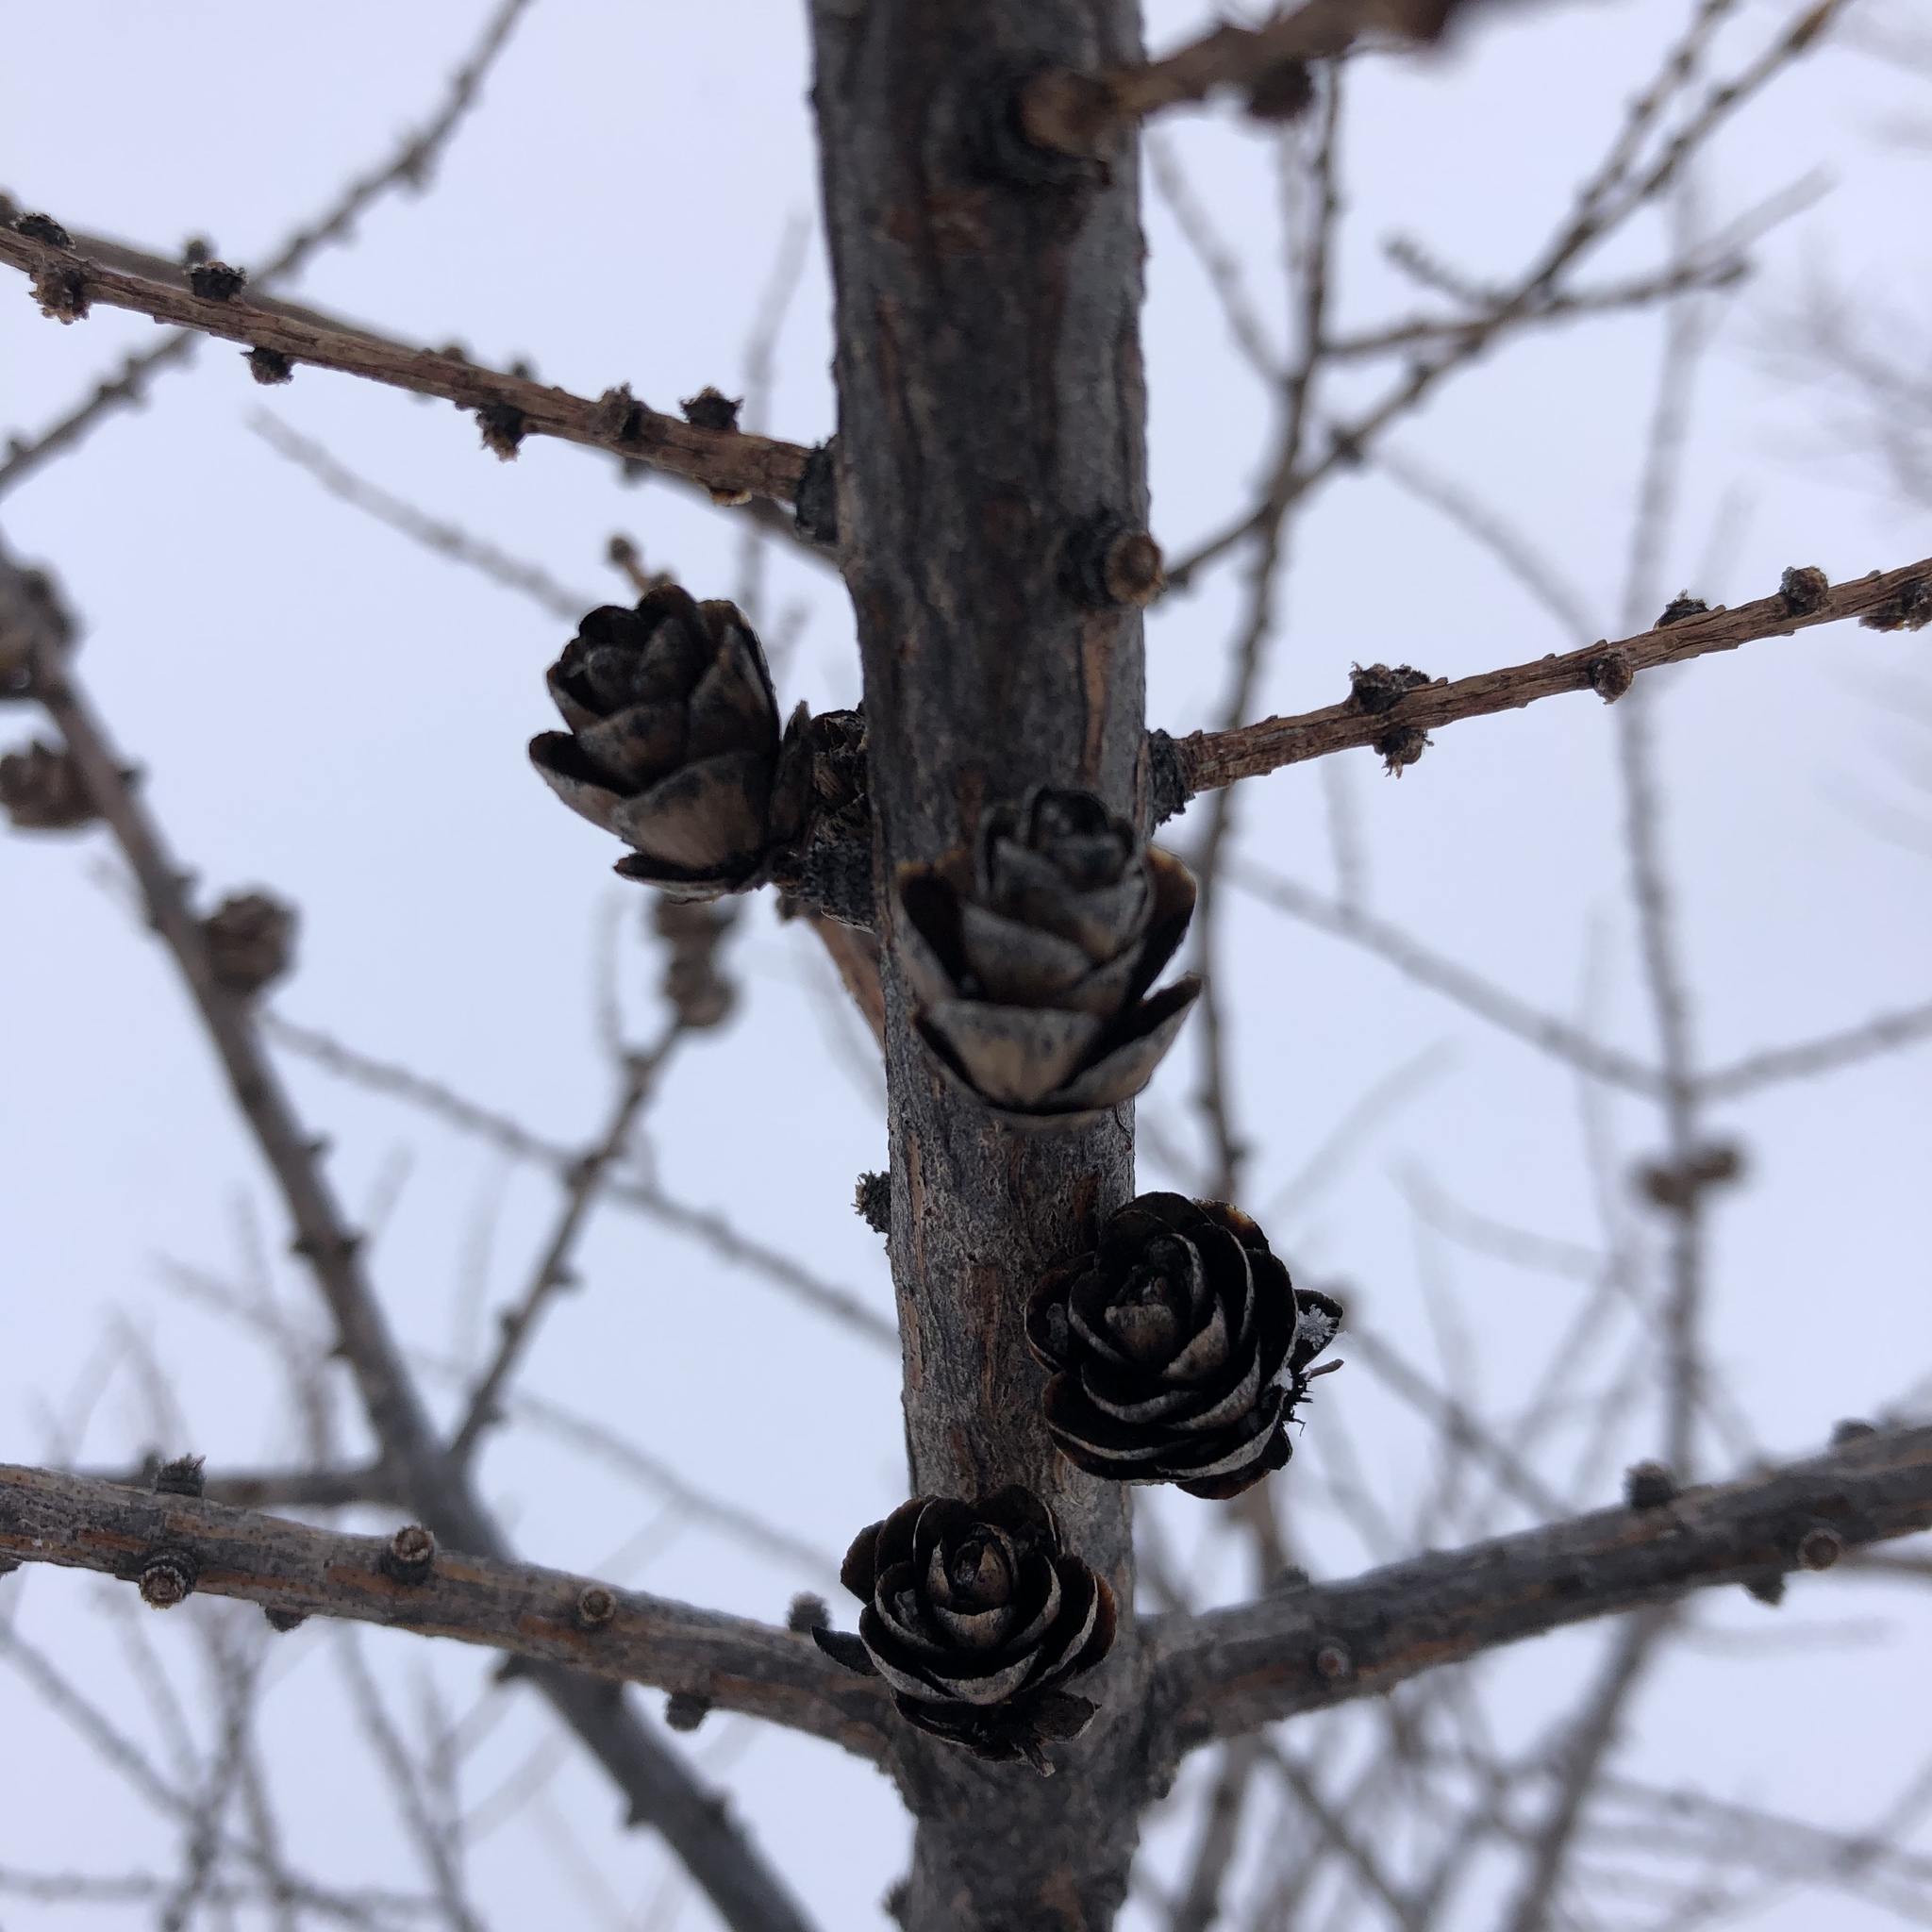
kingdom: Plantae
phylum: Tracheophyta
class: Pinopsida
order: Pinales
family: Pinaceae
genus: Larix
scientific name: Larix laricina
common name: American larch
